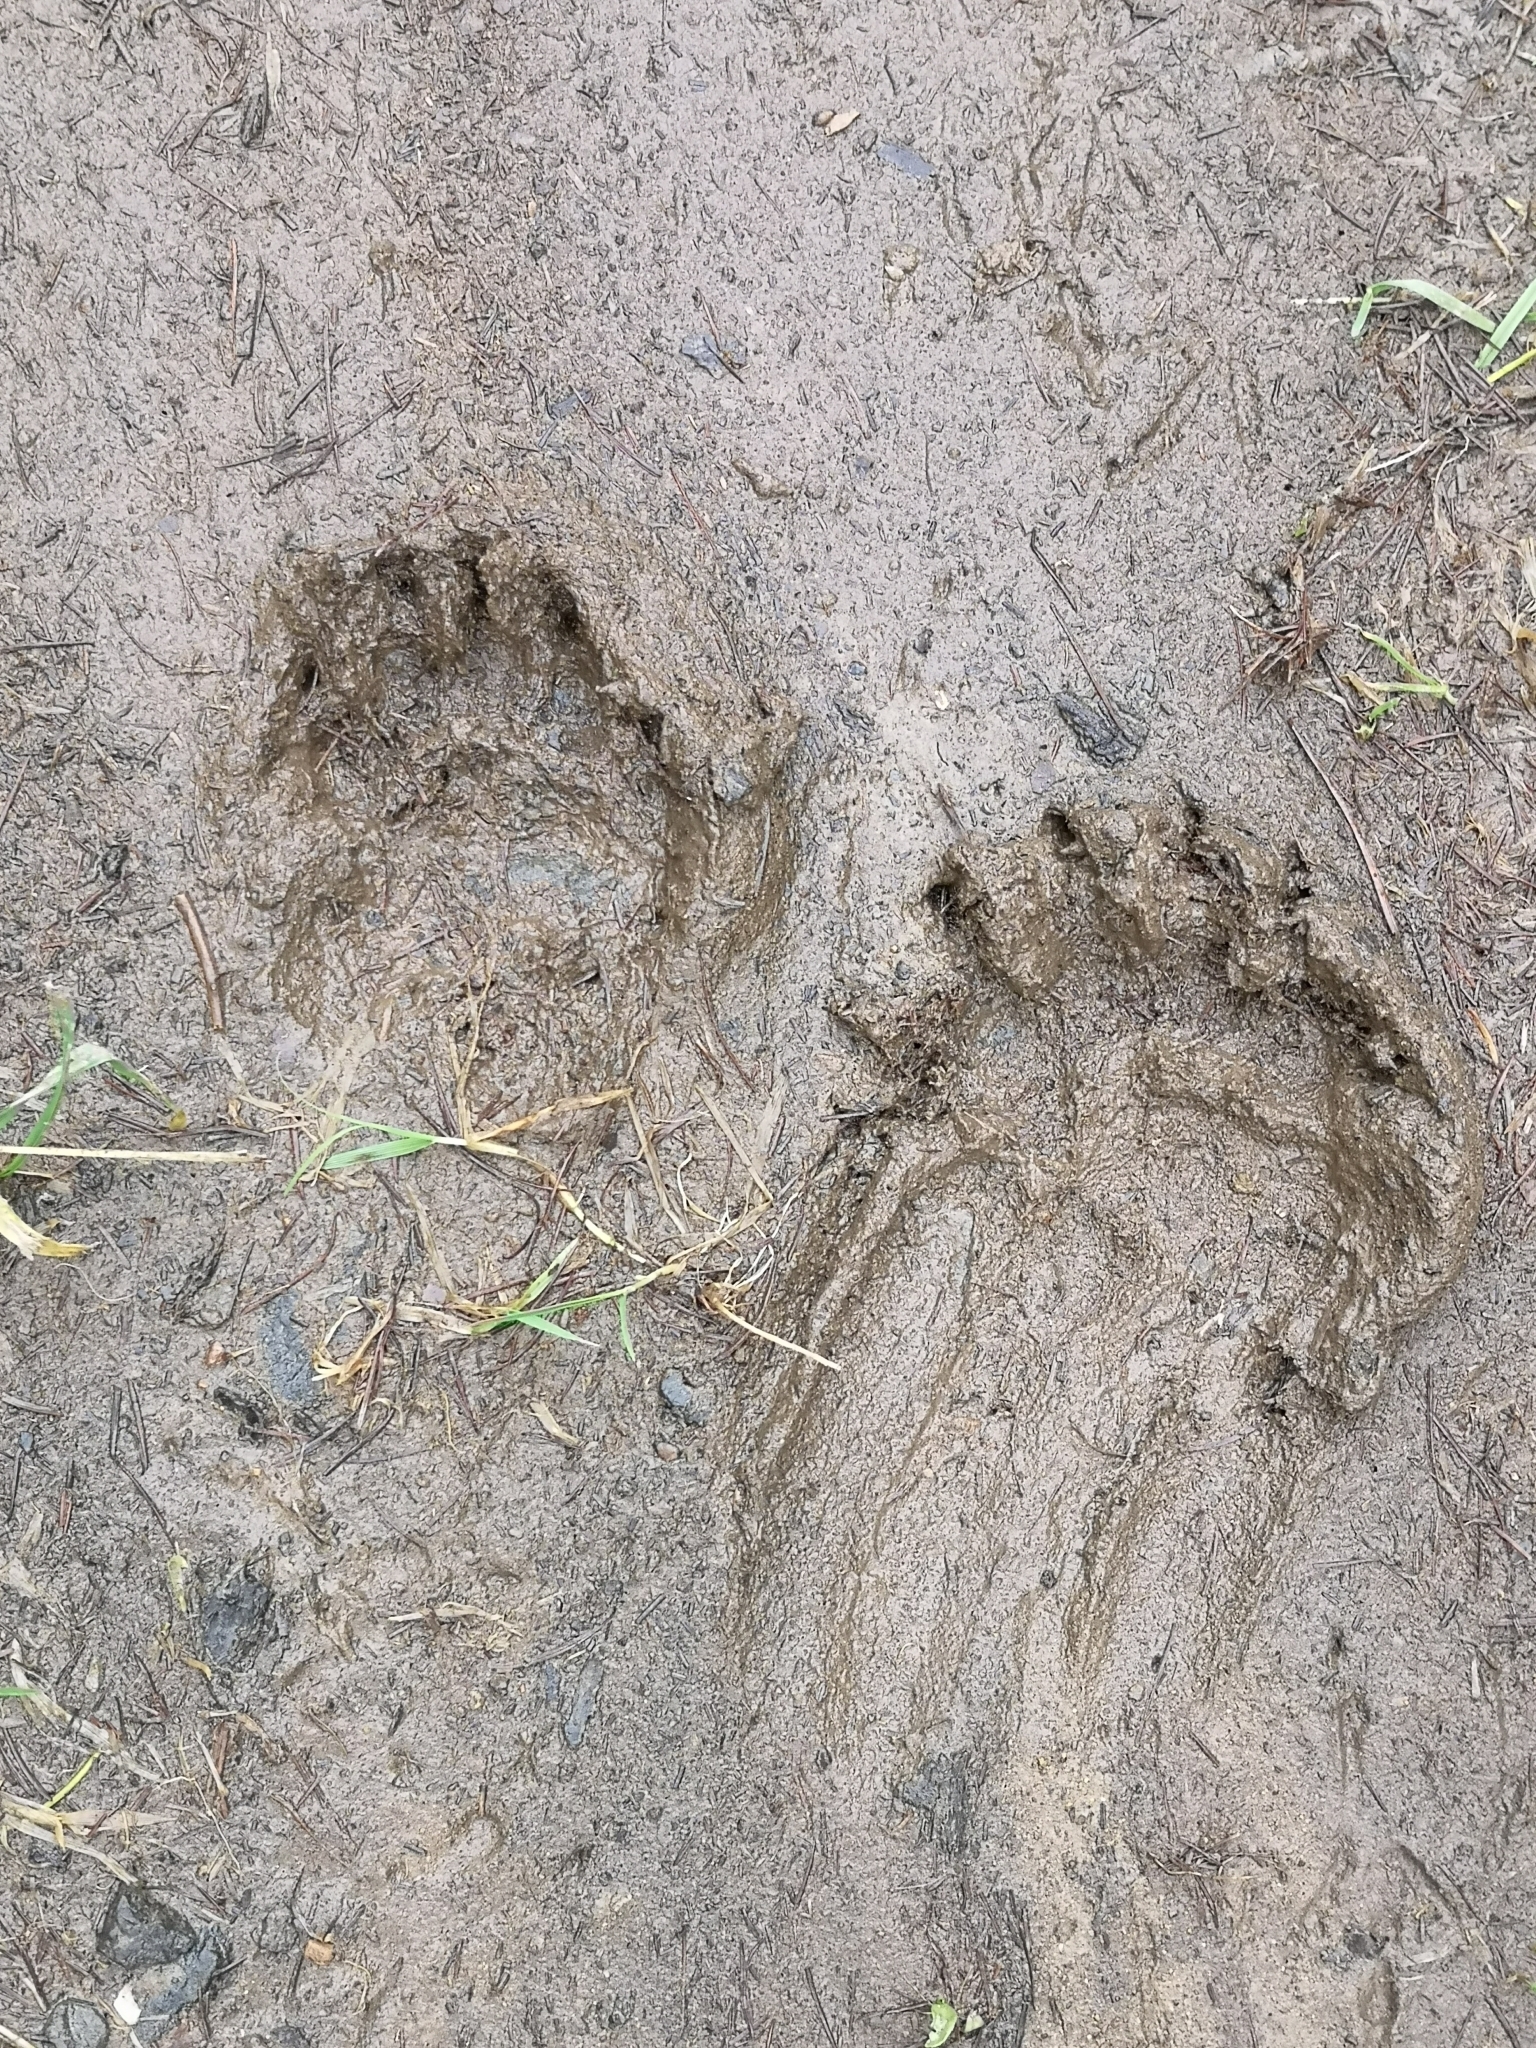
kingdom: Animalia
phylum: Chordata
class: Mammalia
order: Carnivora
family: Mustelidae
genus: Meles
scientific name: Meles meles
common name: Eurasian badger
